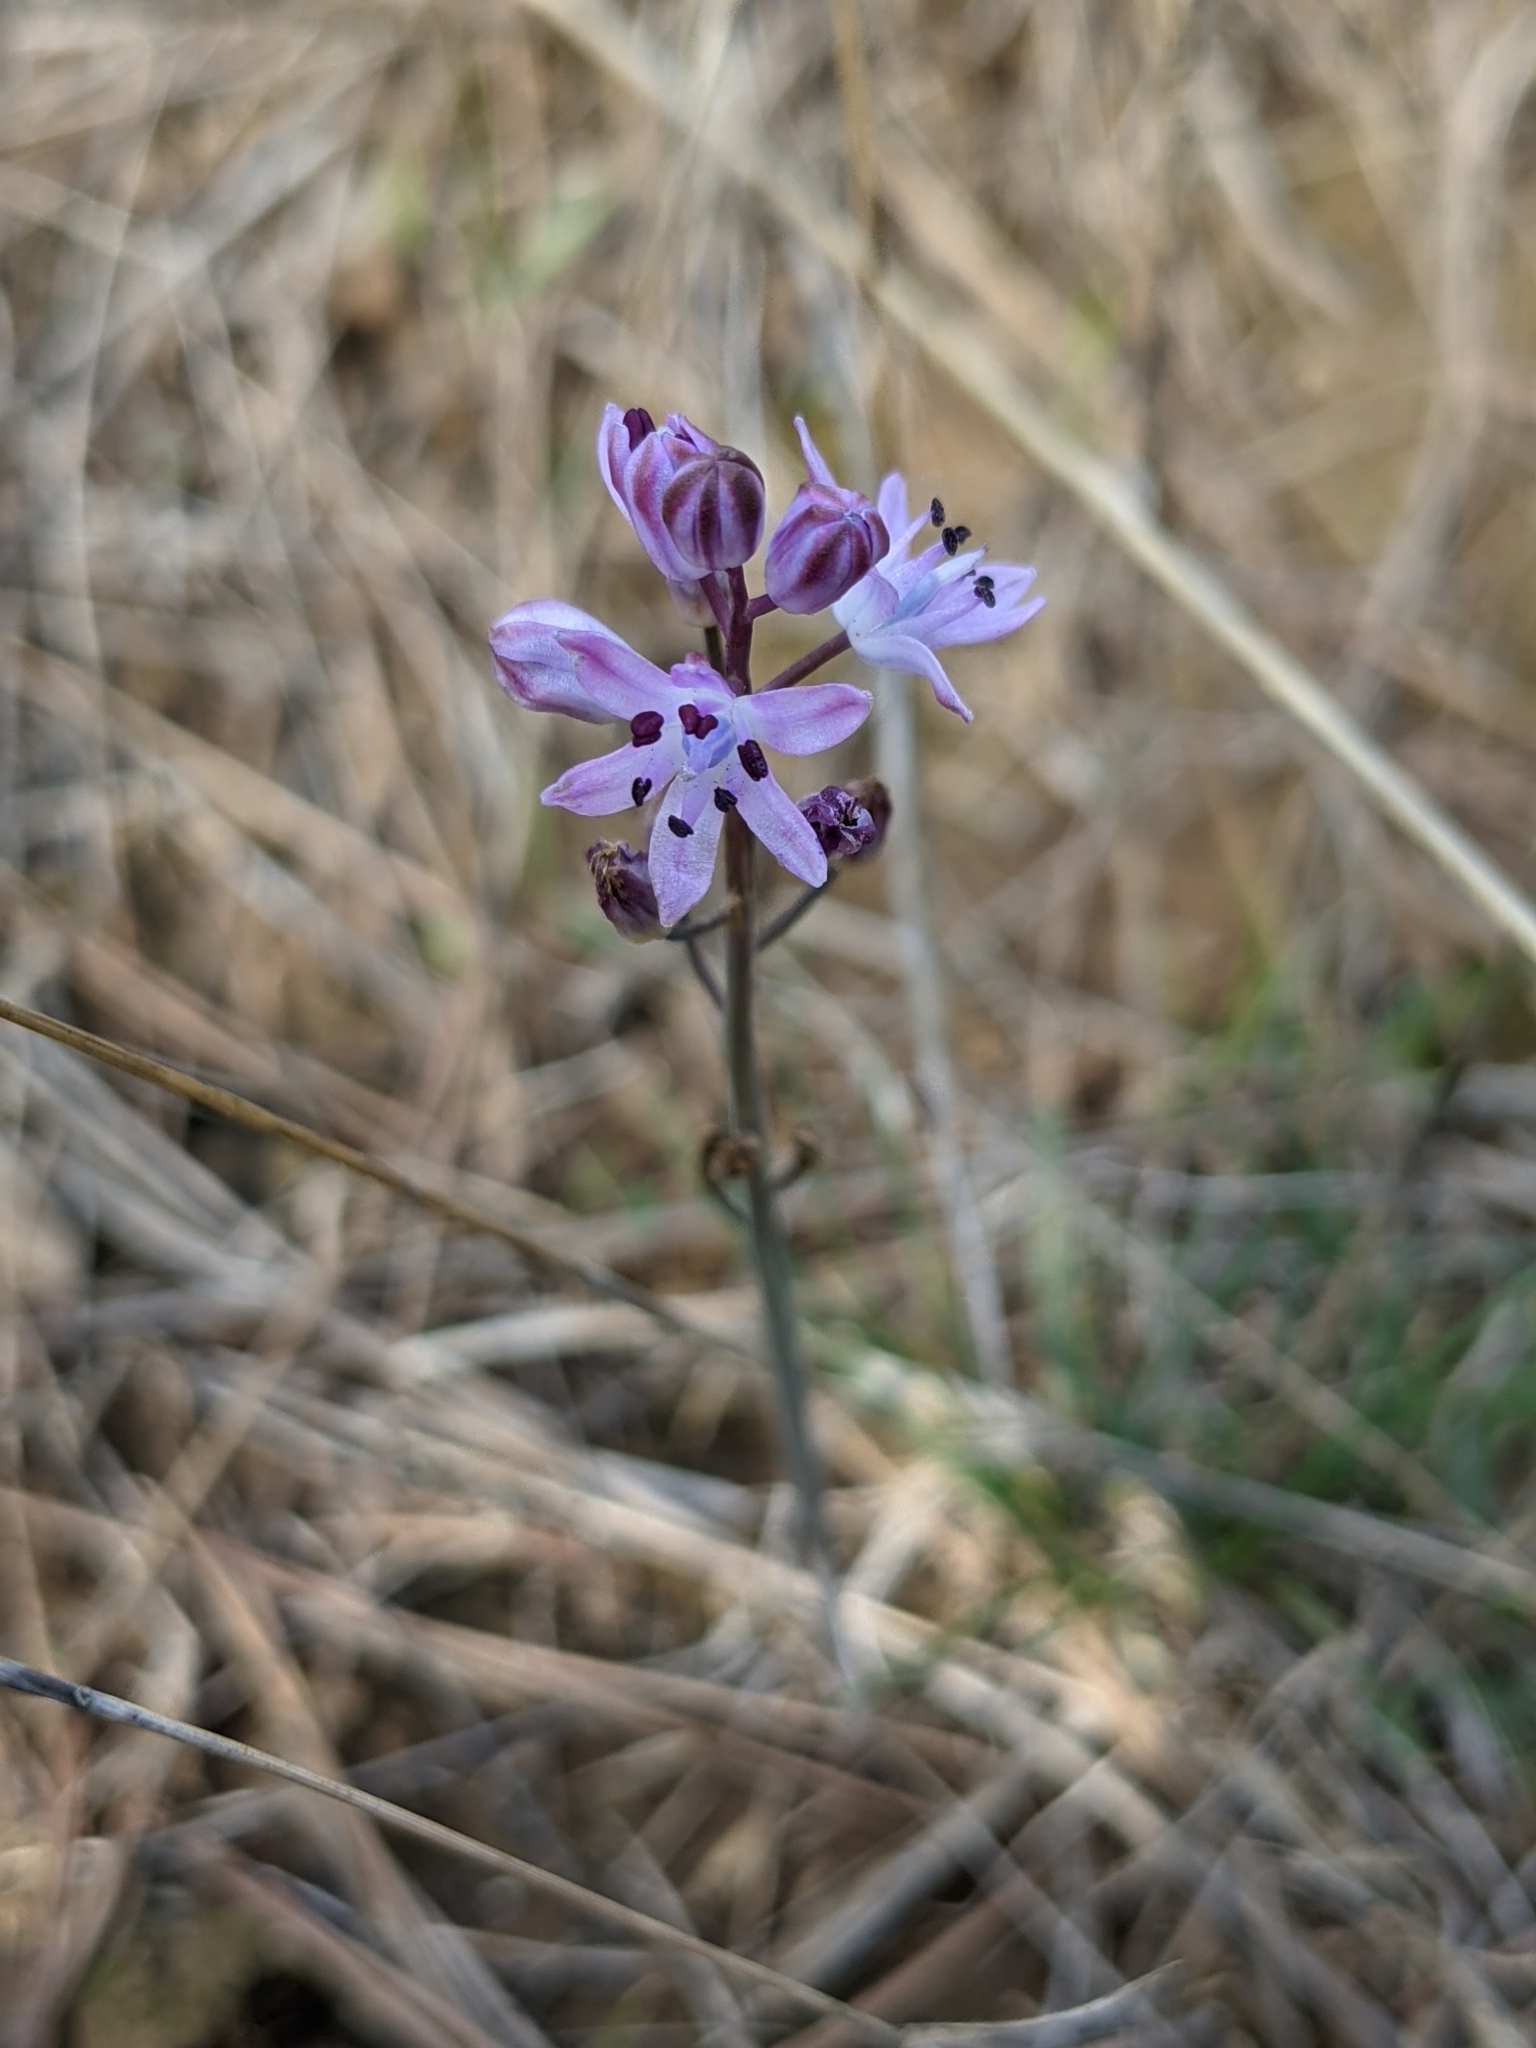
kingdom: Plantae
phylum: Tracheophyta
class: Liliopsida
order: Asparagales
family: Asparagaceae
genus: Prospero
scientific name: Prospero autumnale
